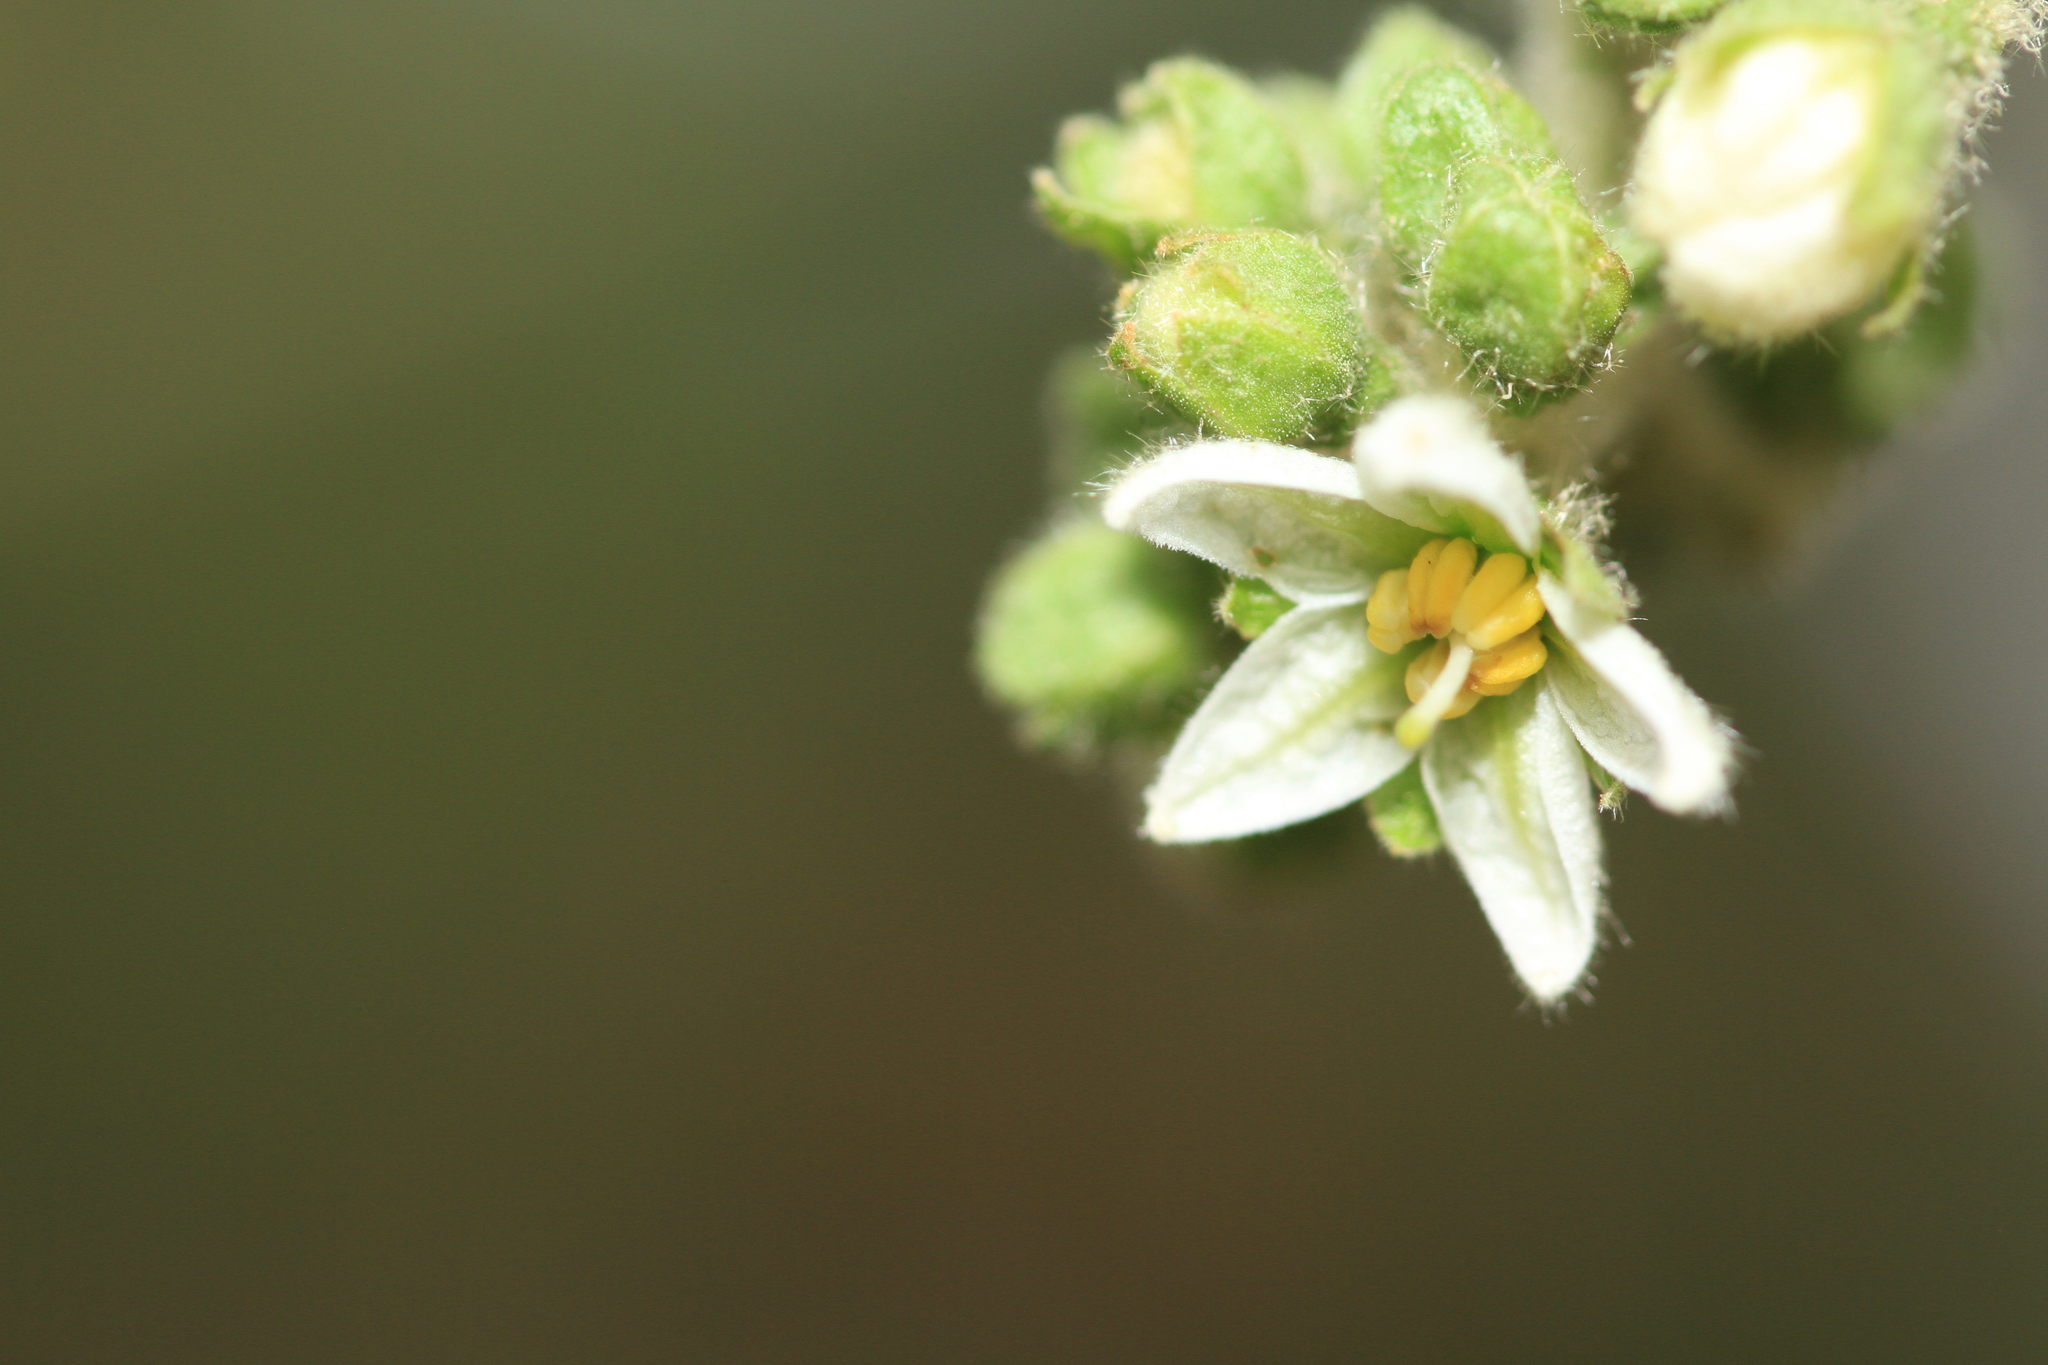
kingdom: Plantae
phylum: Tracheophyta
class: Magnoliopsida
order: Solanales
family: Solanaceae
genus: Solanum
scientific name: Solanum umbellatum
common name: Nightshade
